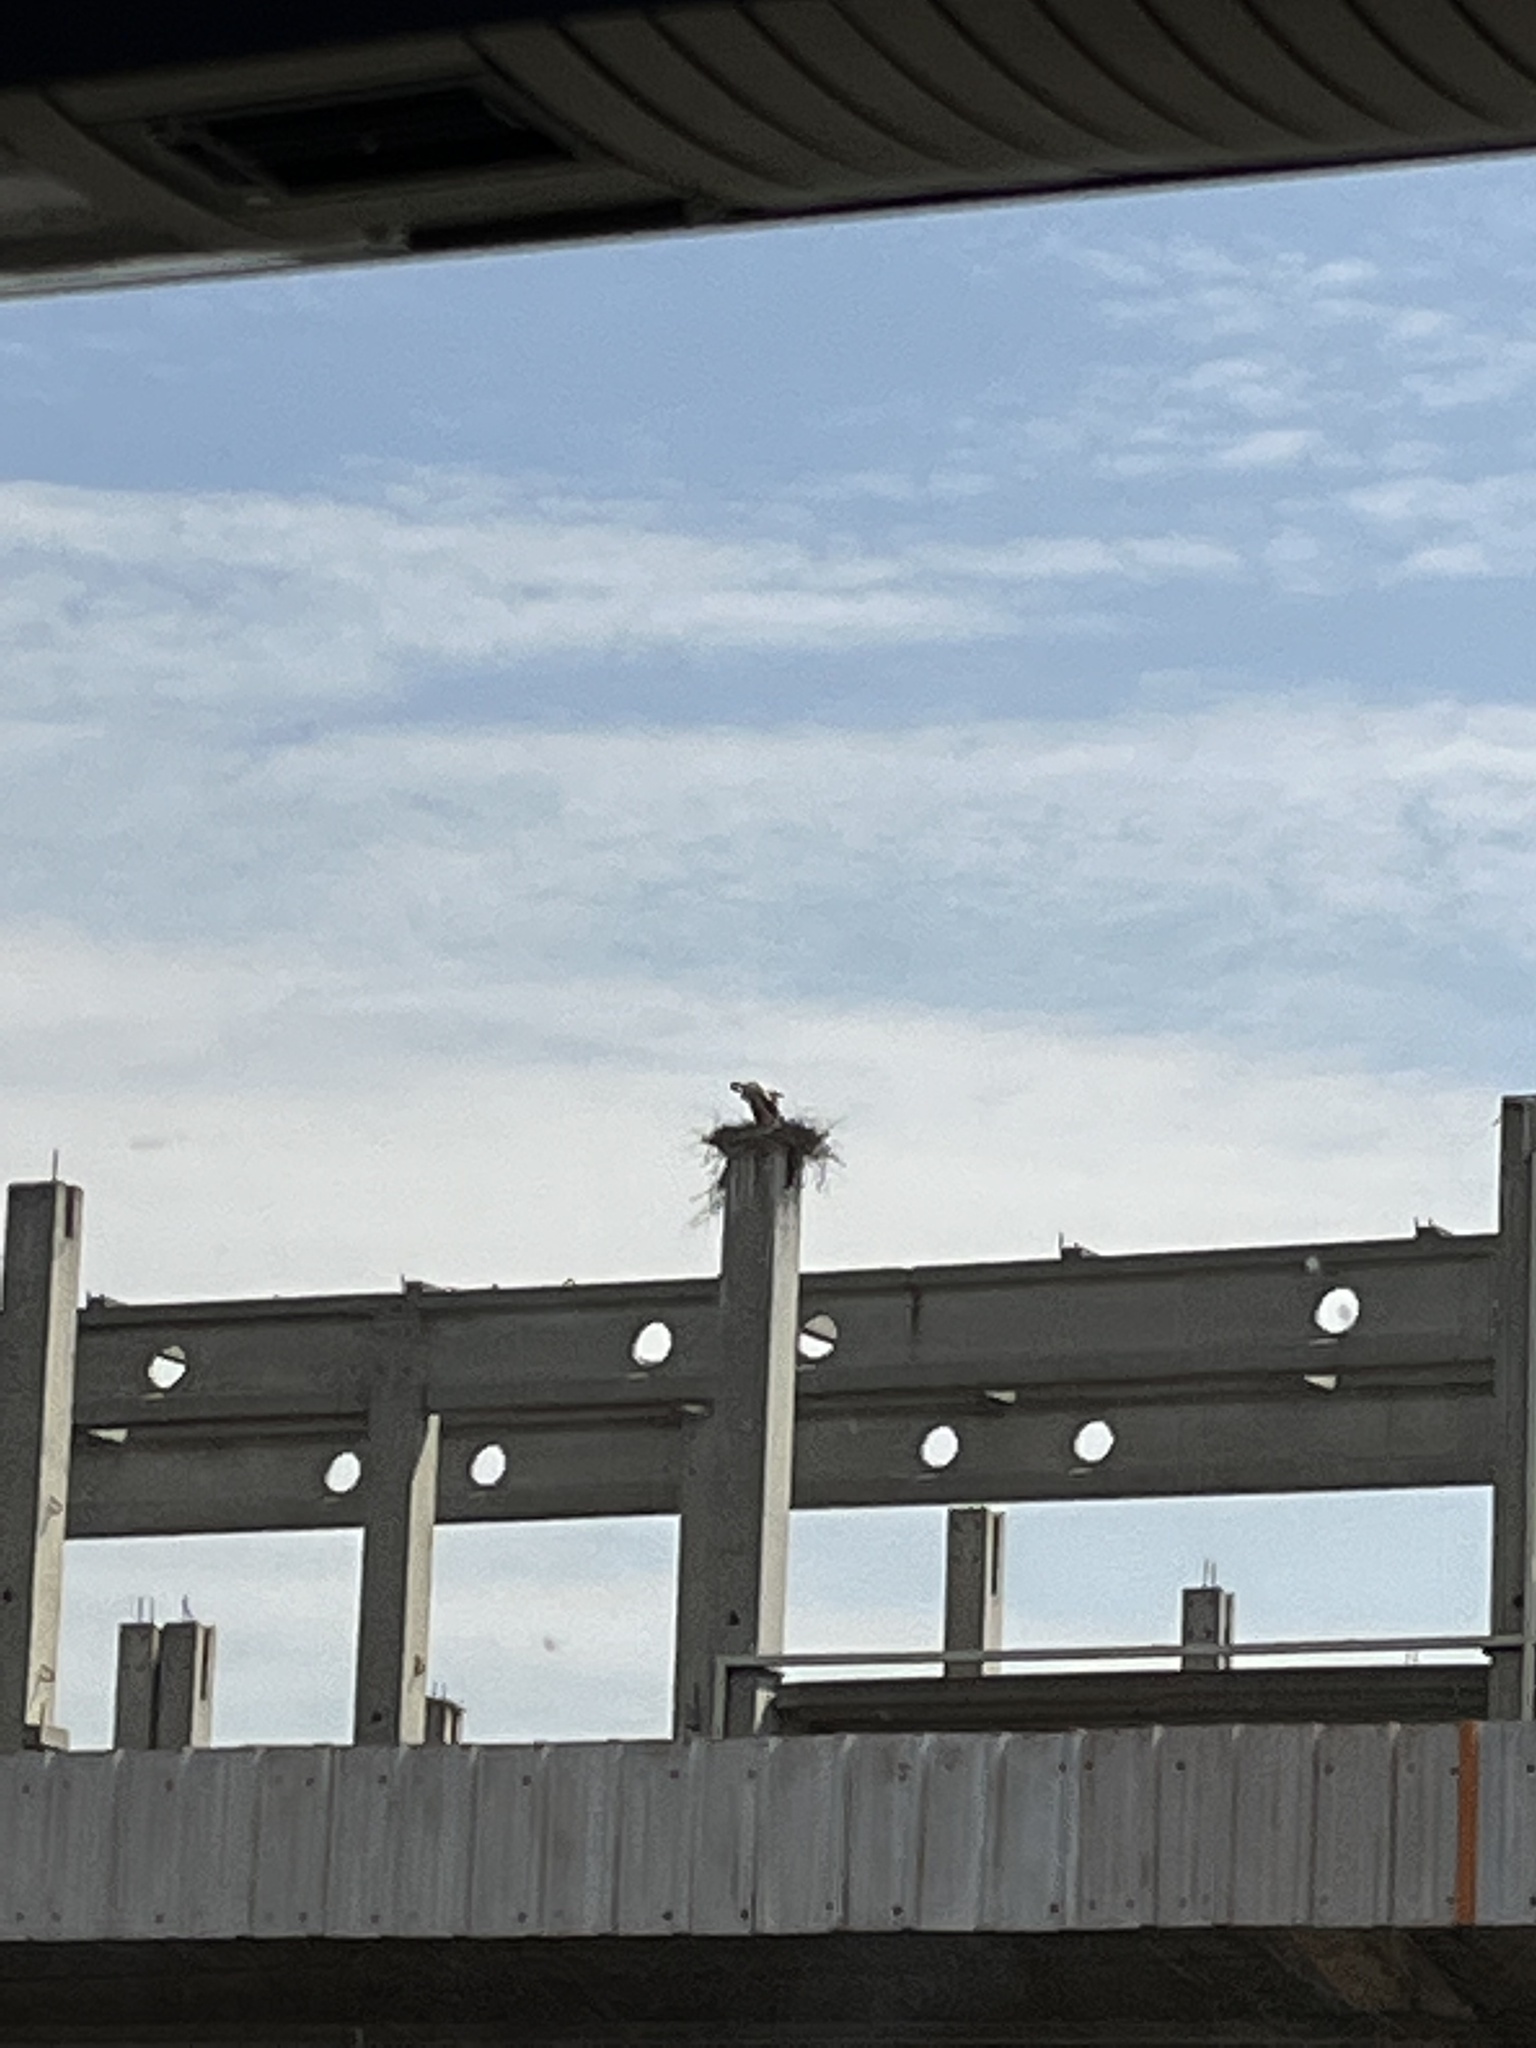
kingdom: Animalia
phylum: Chordata
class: Aves
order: Ciconiiformes
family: Ciconiidae
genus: Ciconia
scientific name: Ciconia ciconia
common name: White stork
